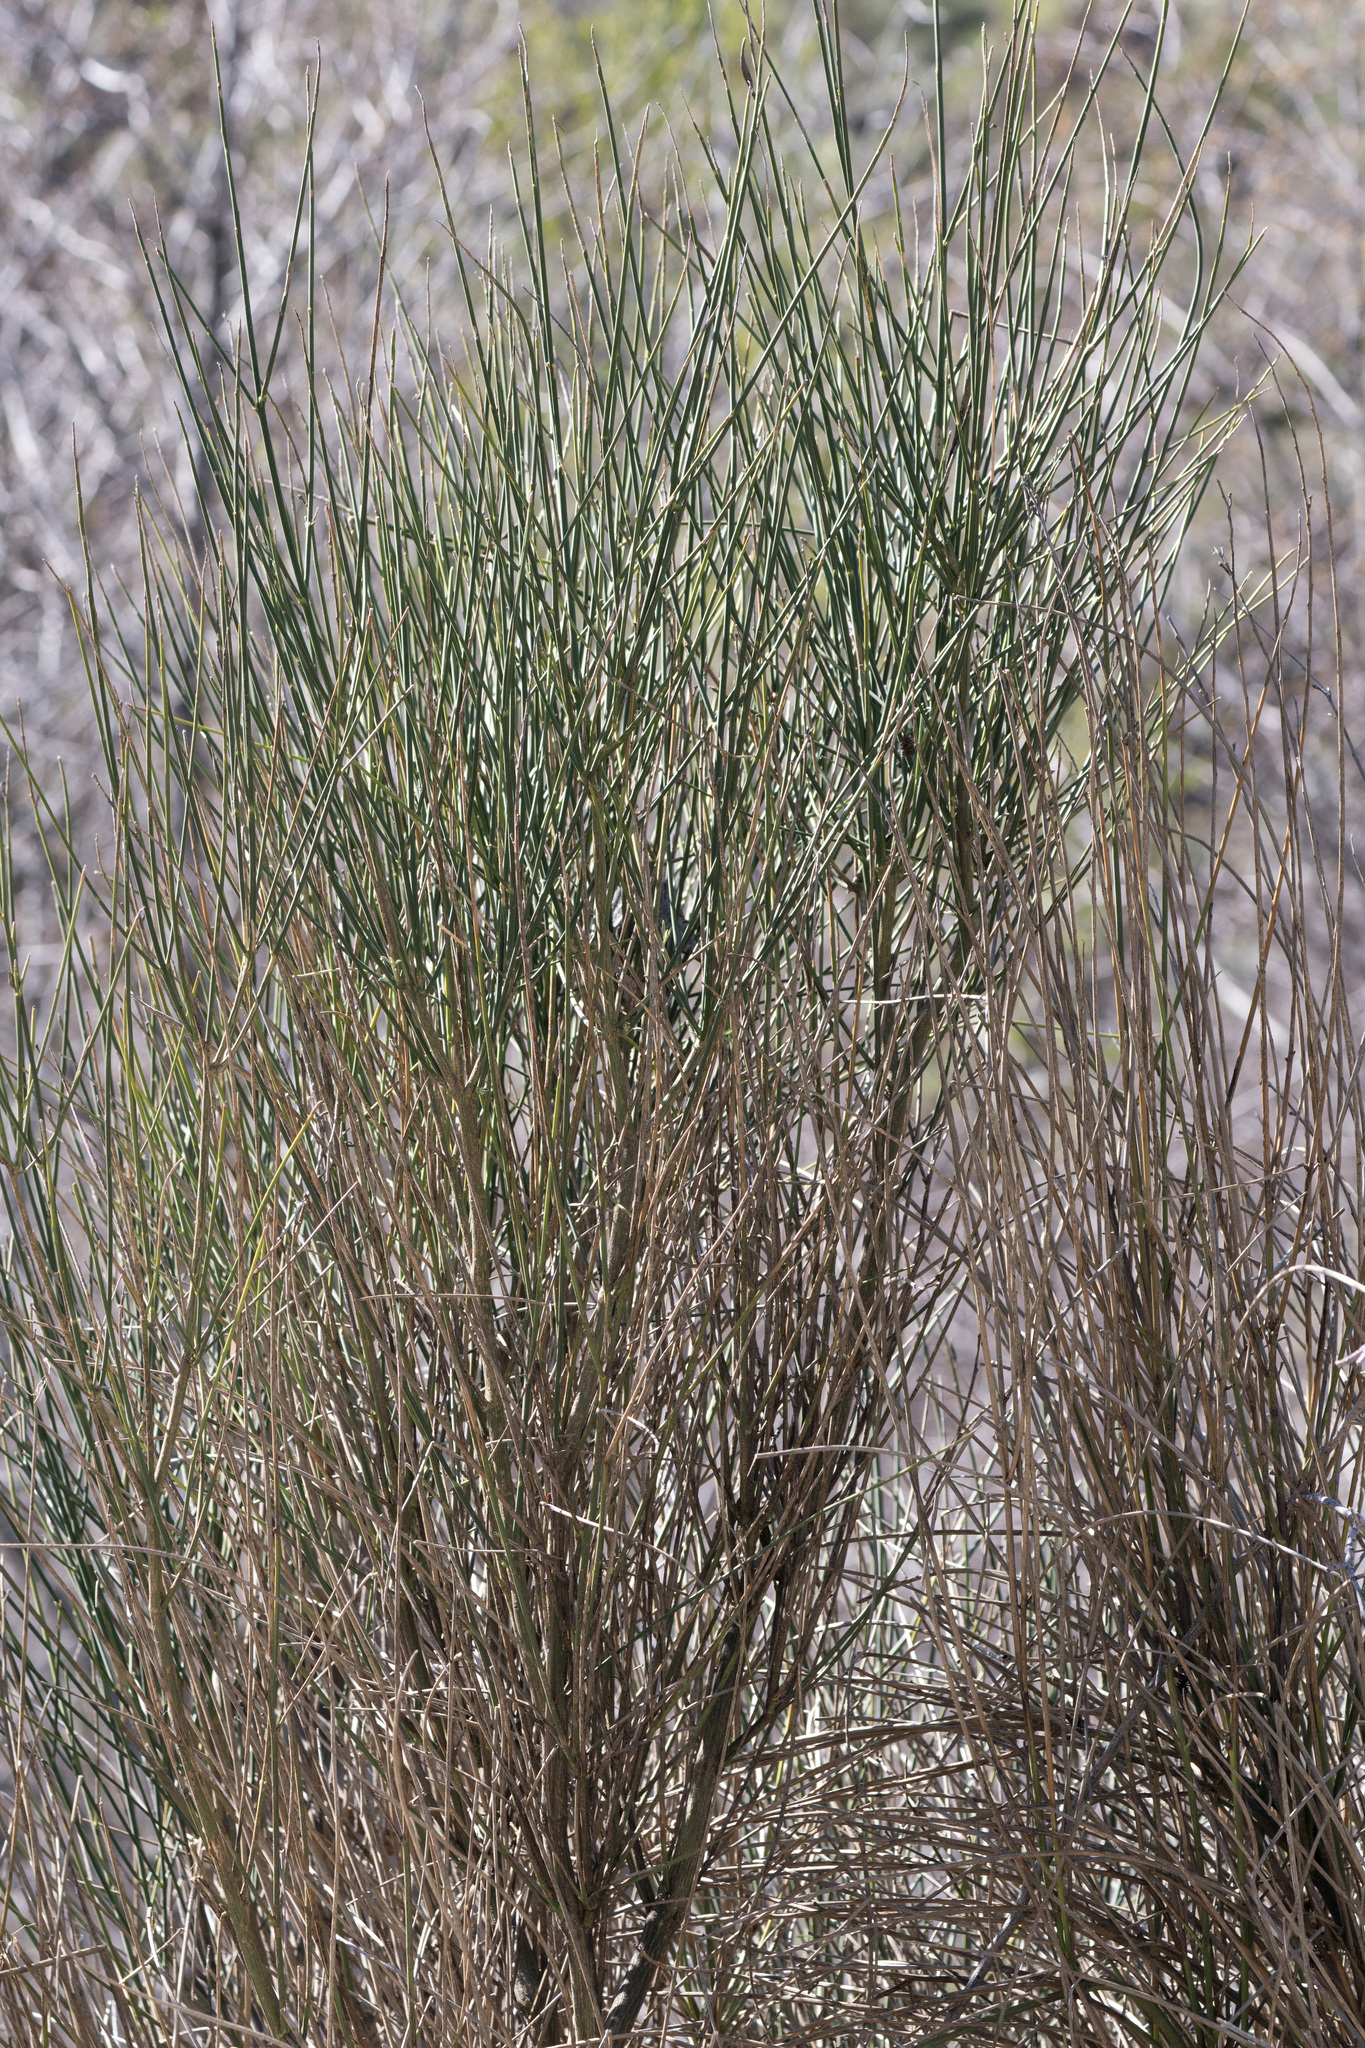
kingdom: Plantae
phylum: Tracheophyta
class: Magnoliopsida
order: Fabales
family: Fabaceae
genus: Spartium
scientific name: Spartium junceum
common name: Spanish broom
